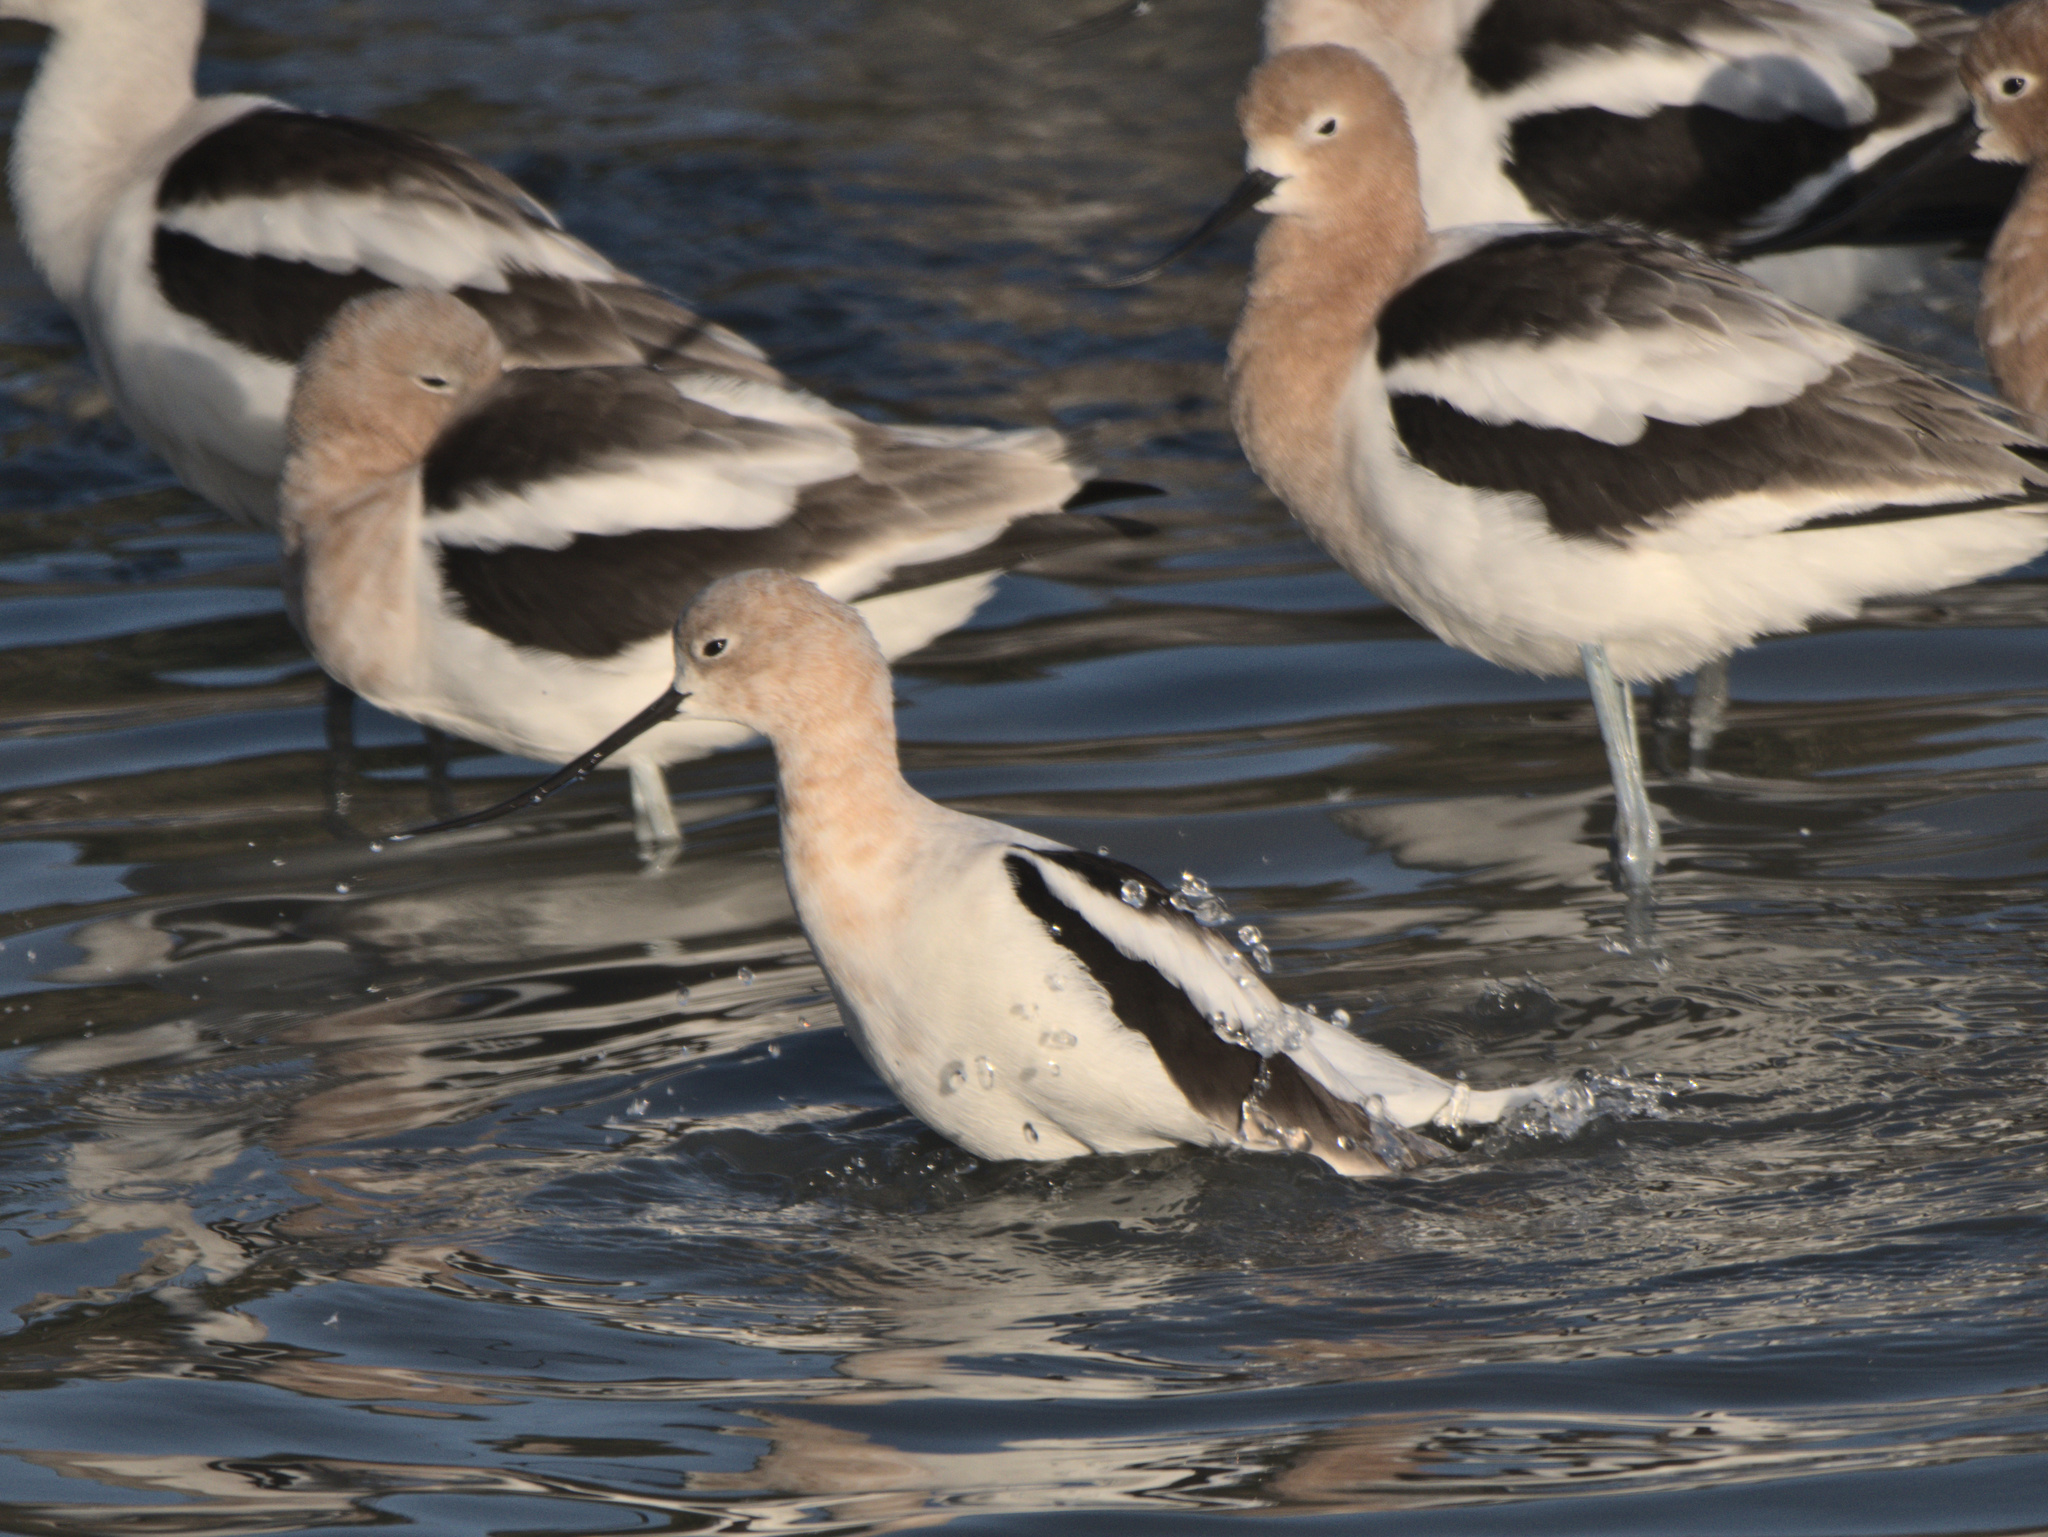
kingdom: Animalia
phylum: Chordata
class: Aves
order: Charadriiformes
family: Recurvirostridae
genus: Recurvirostra
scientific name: Recurvirostra americana
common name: American avocet
